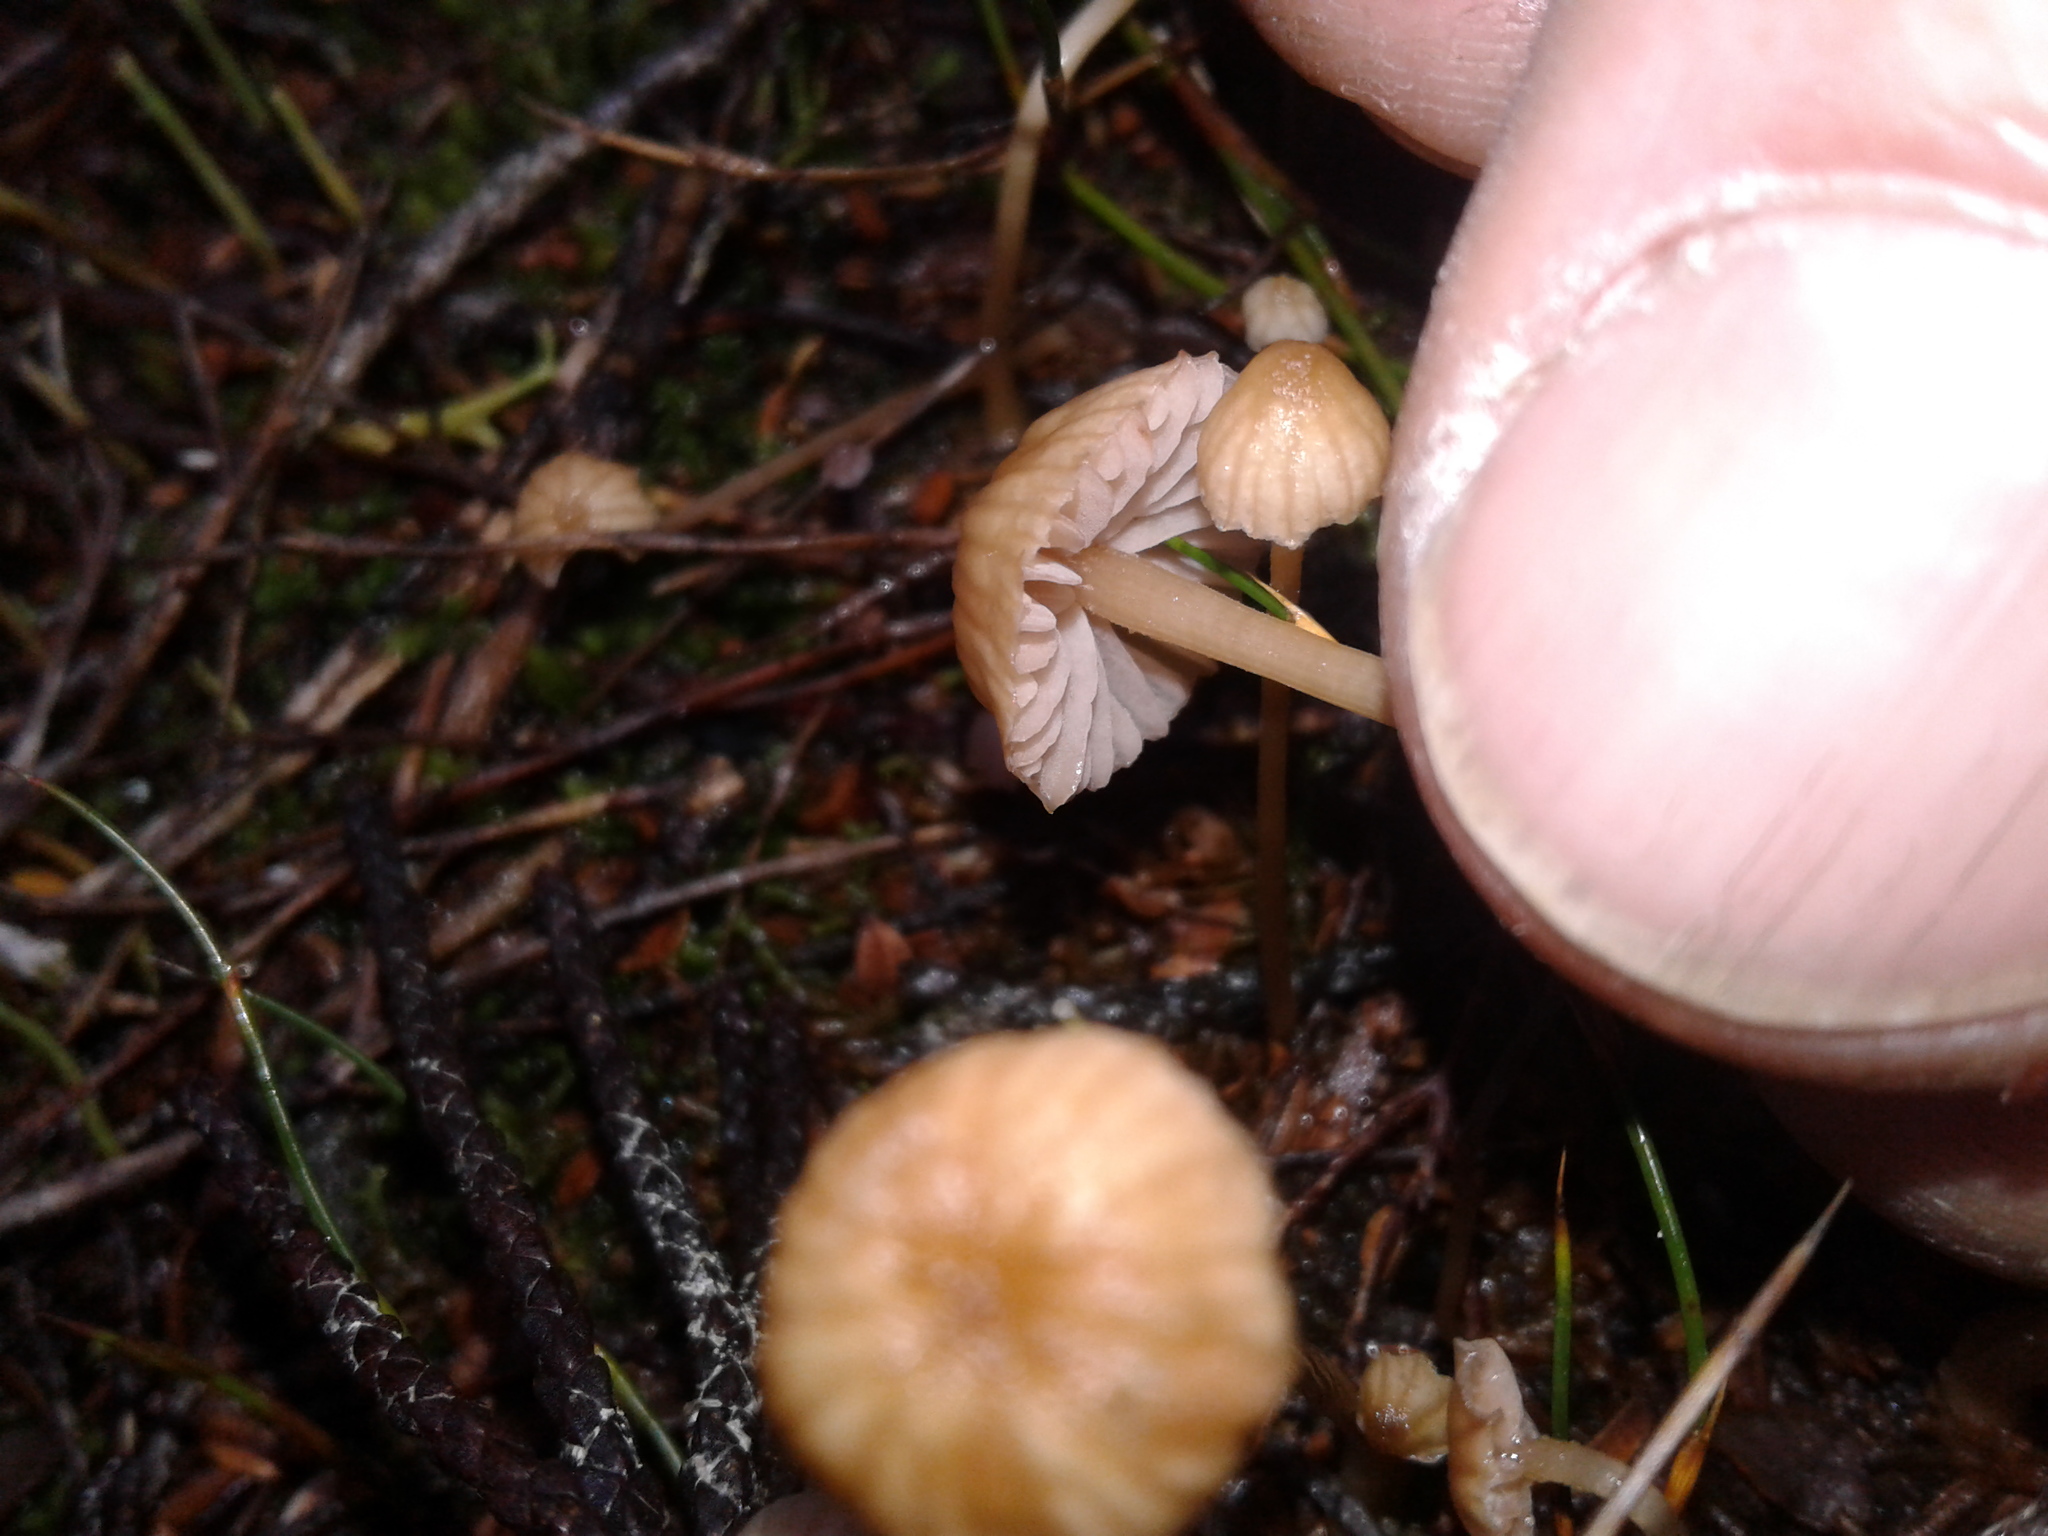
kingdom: Fungi
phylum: Basidiomycota
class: Agaricomycetes
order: Agaricales
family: Hydnangiaceae
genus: Laccaria
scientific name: Laccaria masoniae
